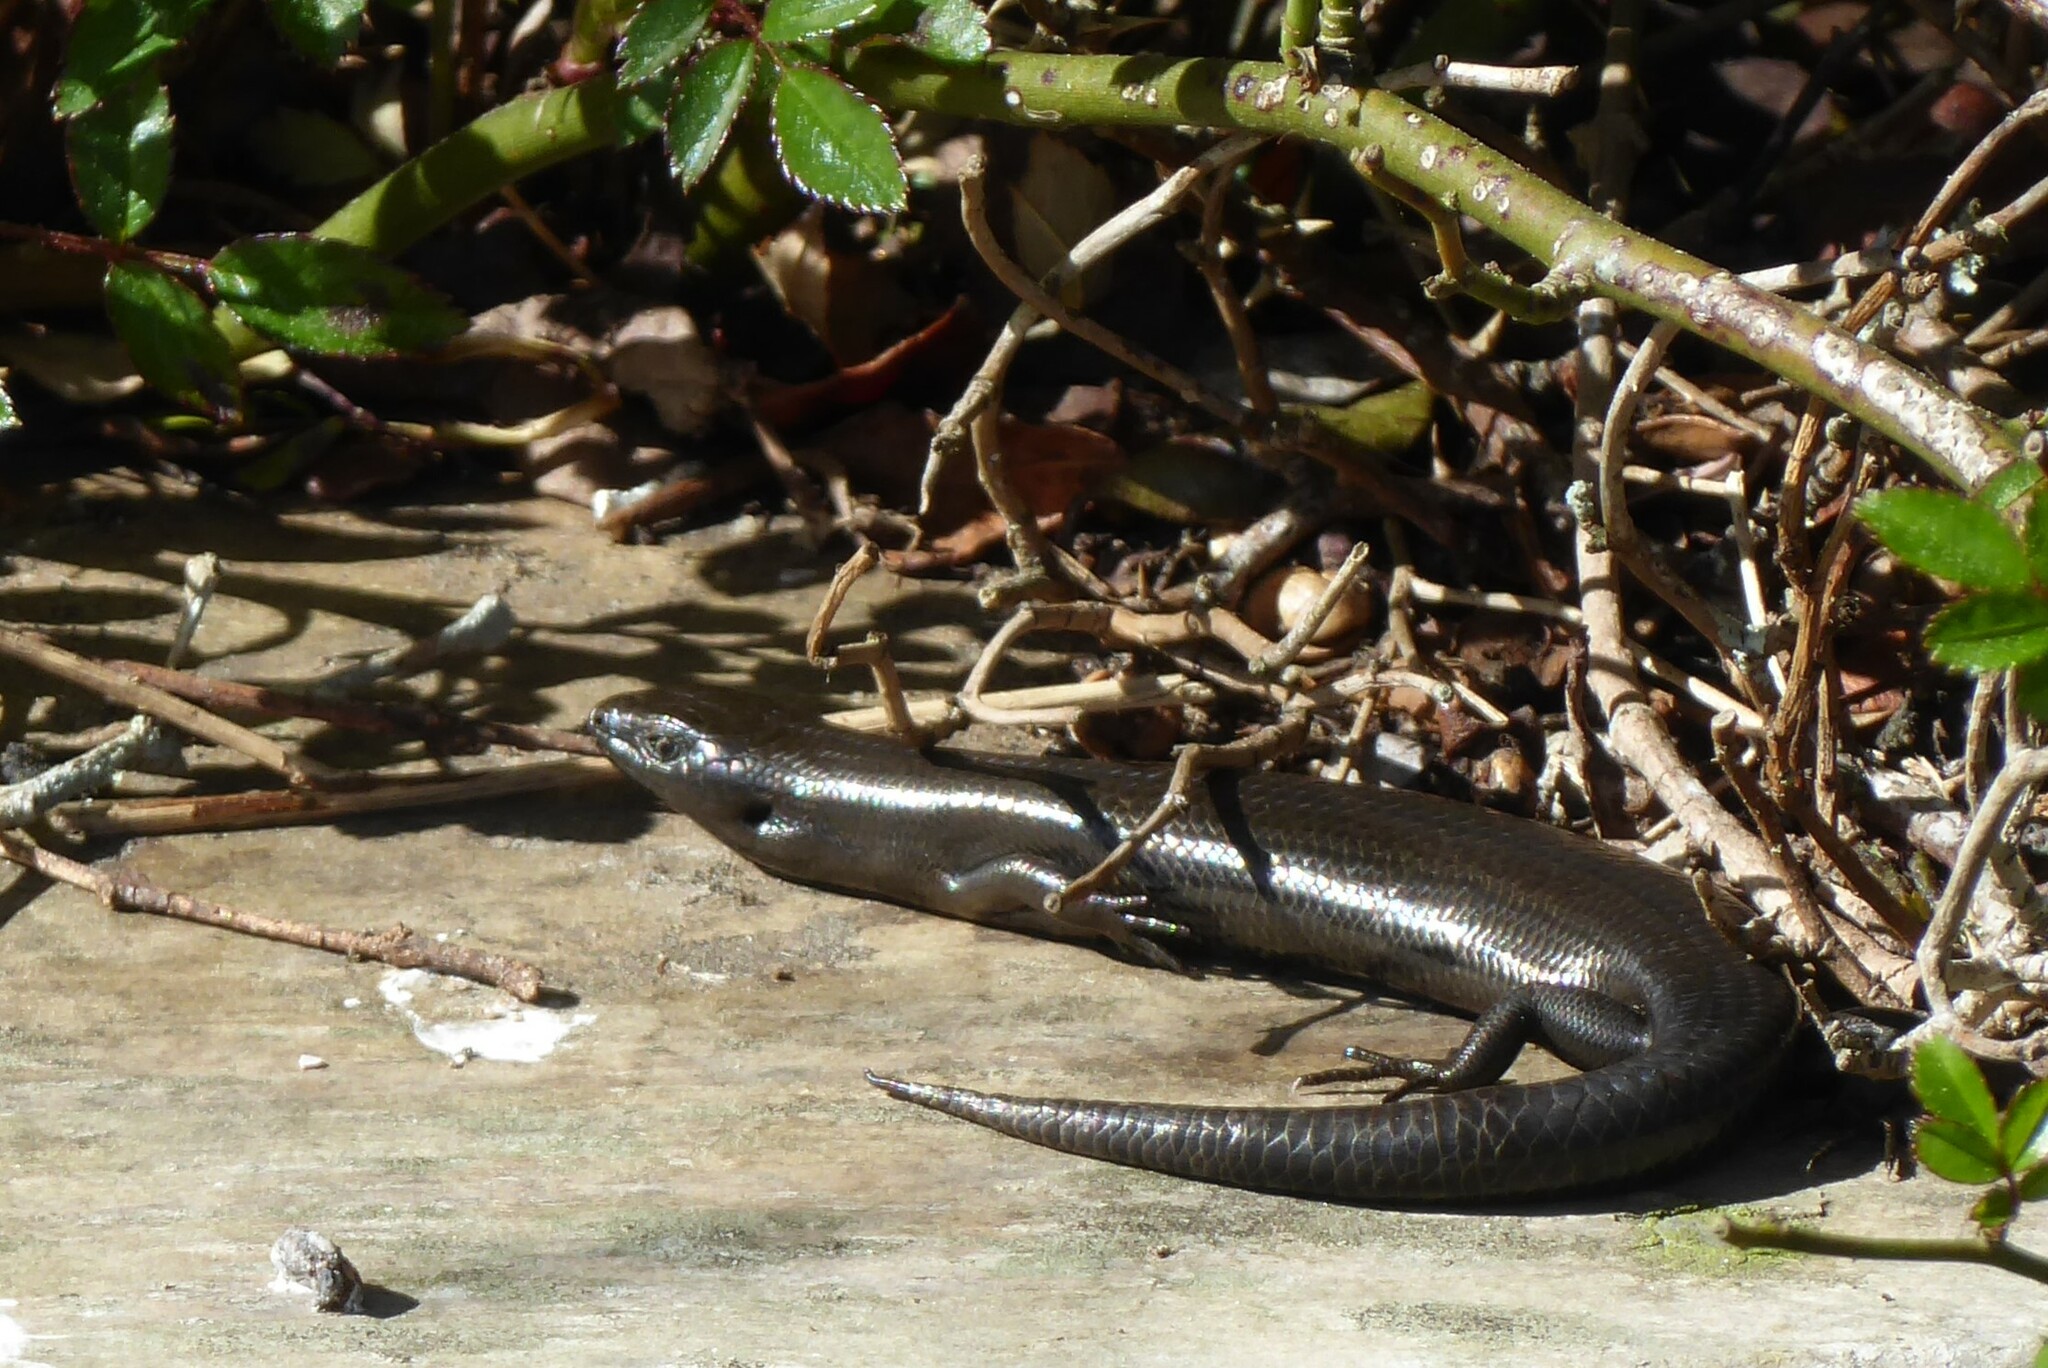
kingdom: Animalia
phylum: Chordata
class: Squamata
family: Scincidae
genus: Oligosoma
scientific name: Oligosoma polychroma
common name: Common new zealand skink
